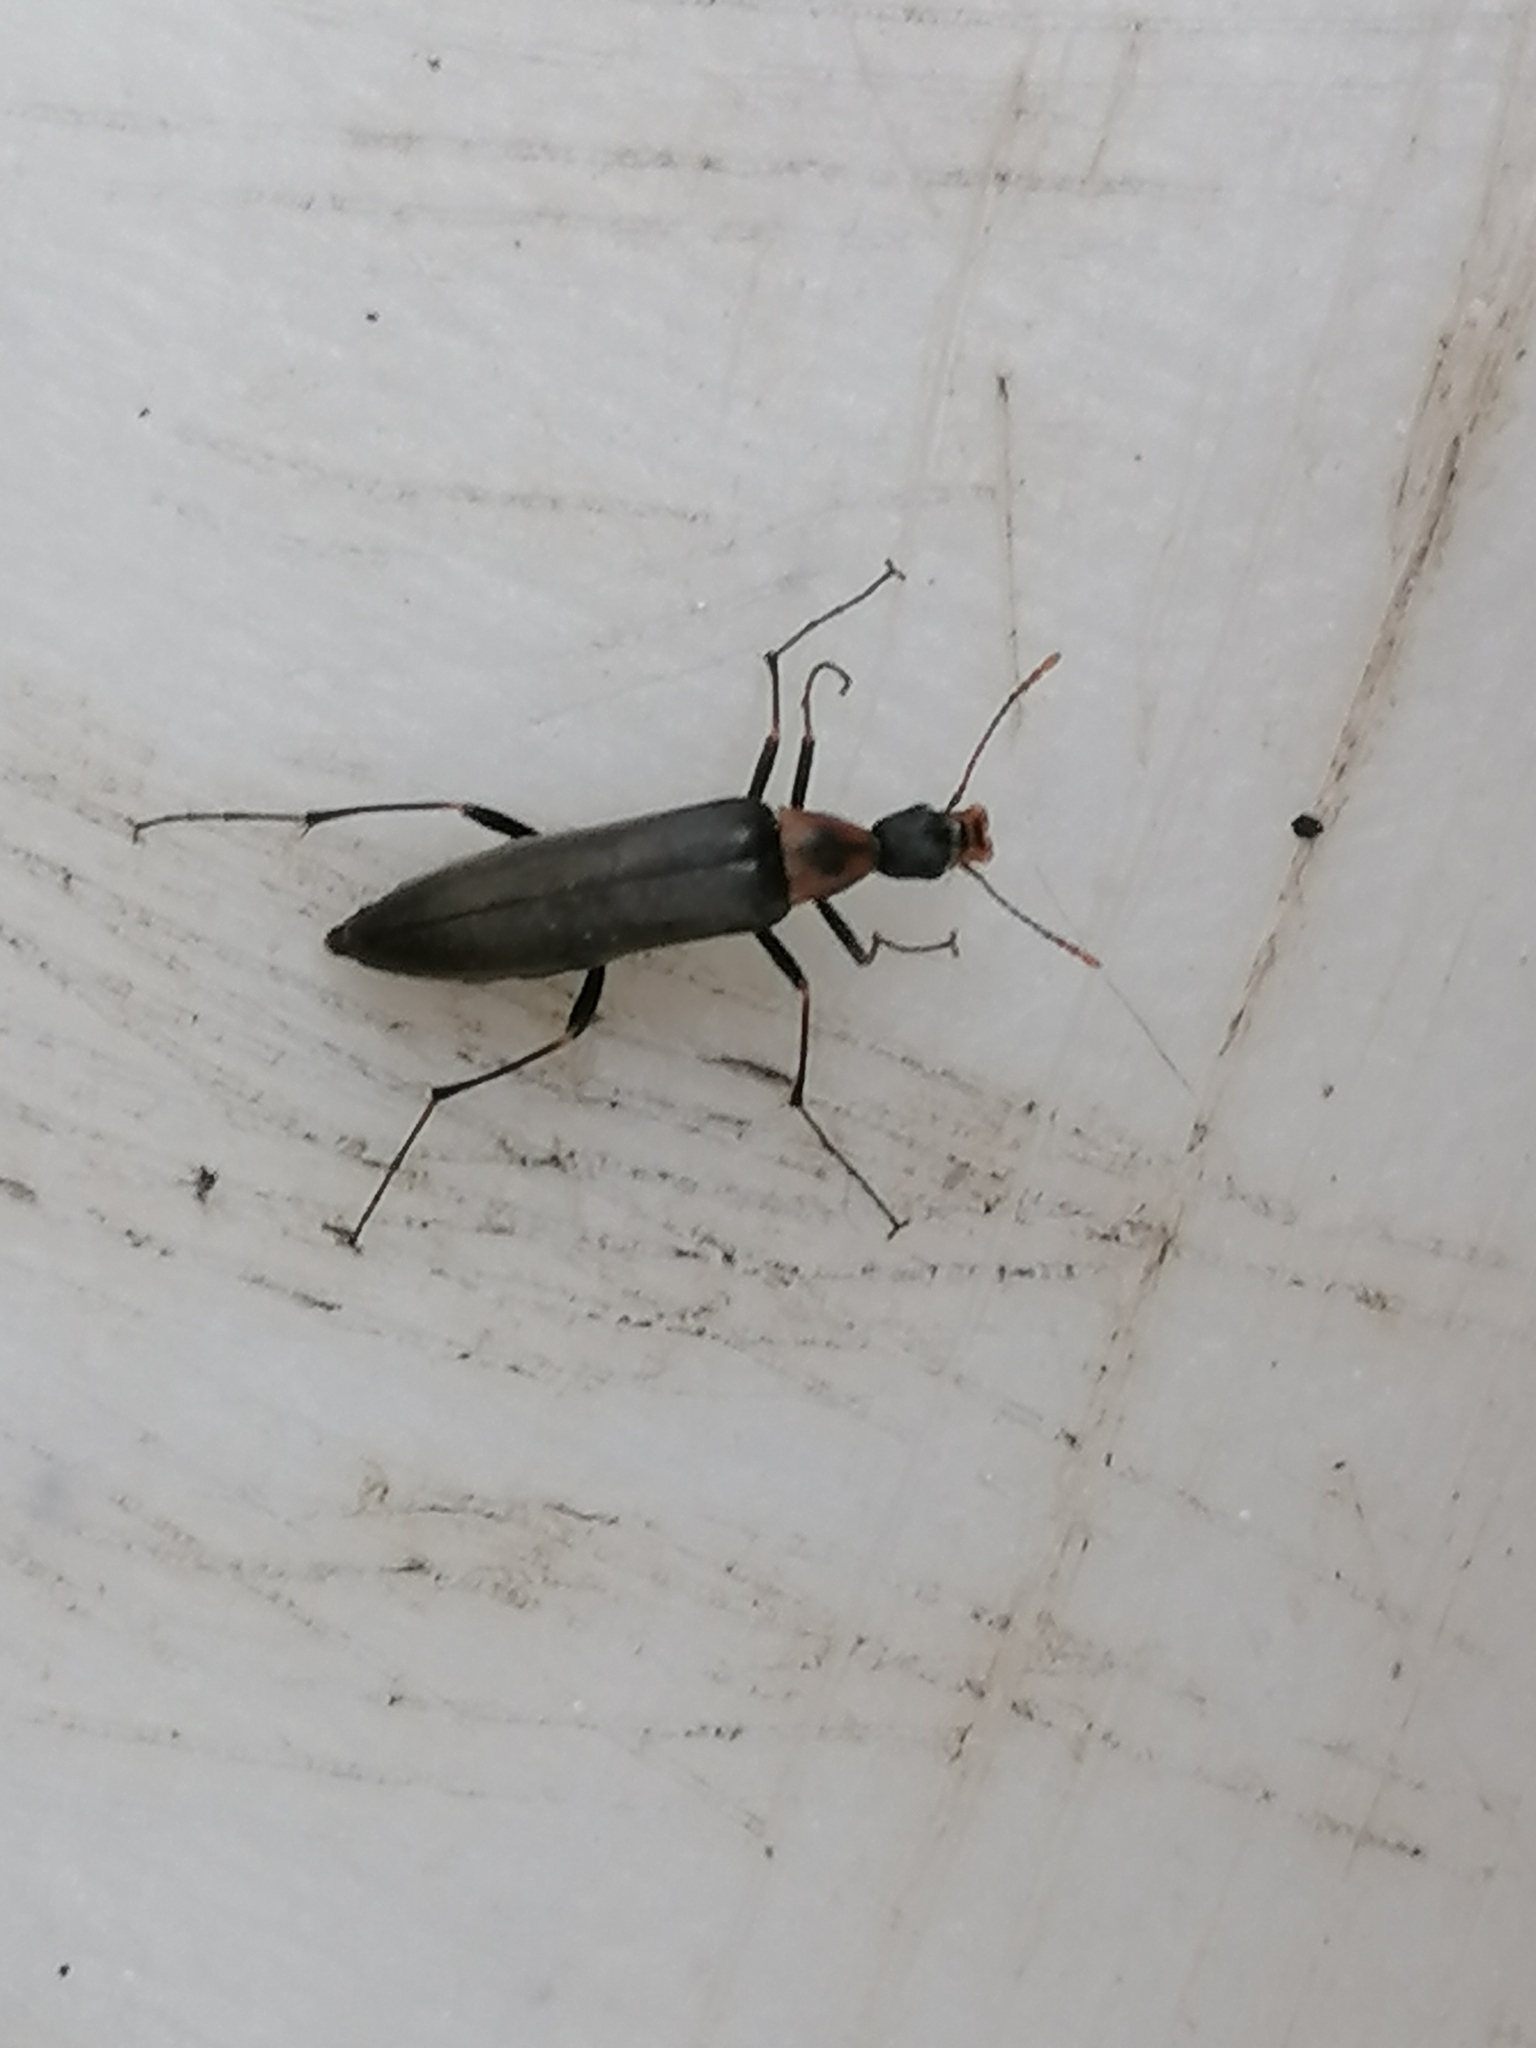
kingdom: Animalia
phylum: Arthropoda
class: Insecta
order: Coleoptera
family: Stenotrachelidae
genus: Cephaloon
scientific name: Cephaloon lepturides
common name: False leptura beetle
